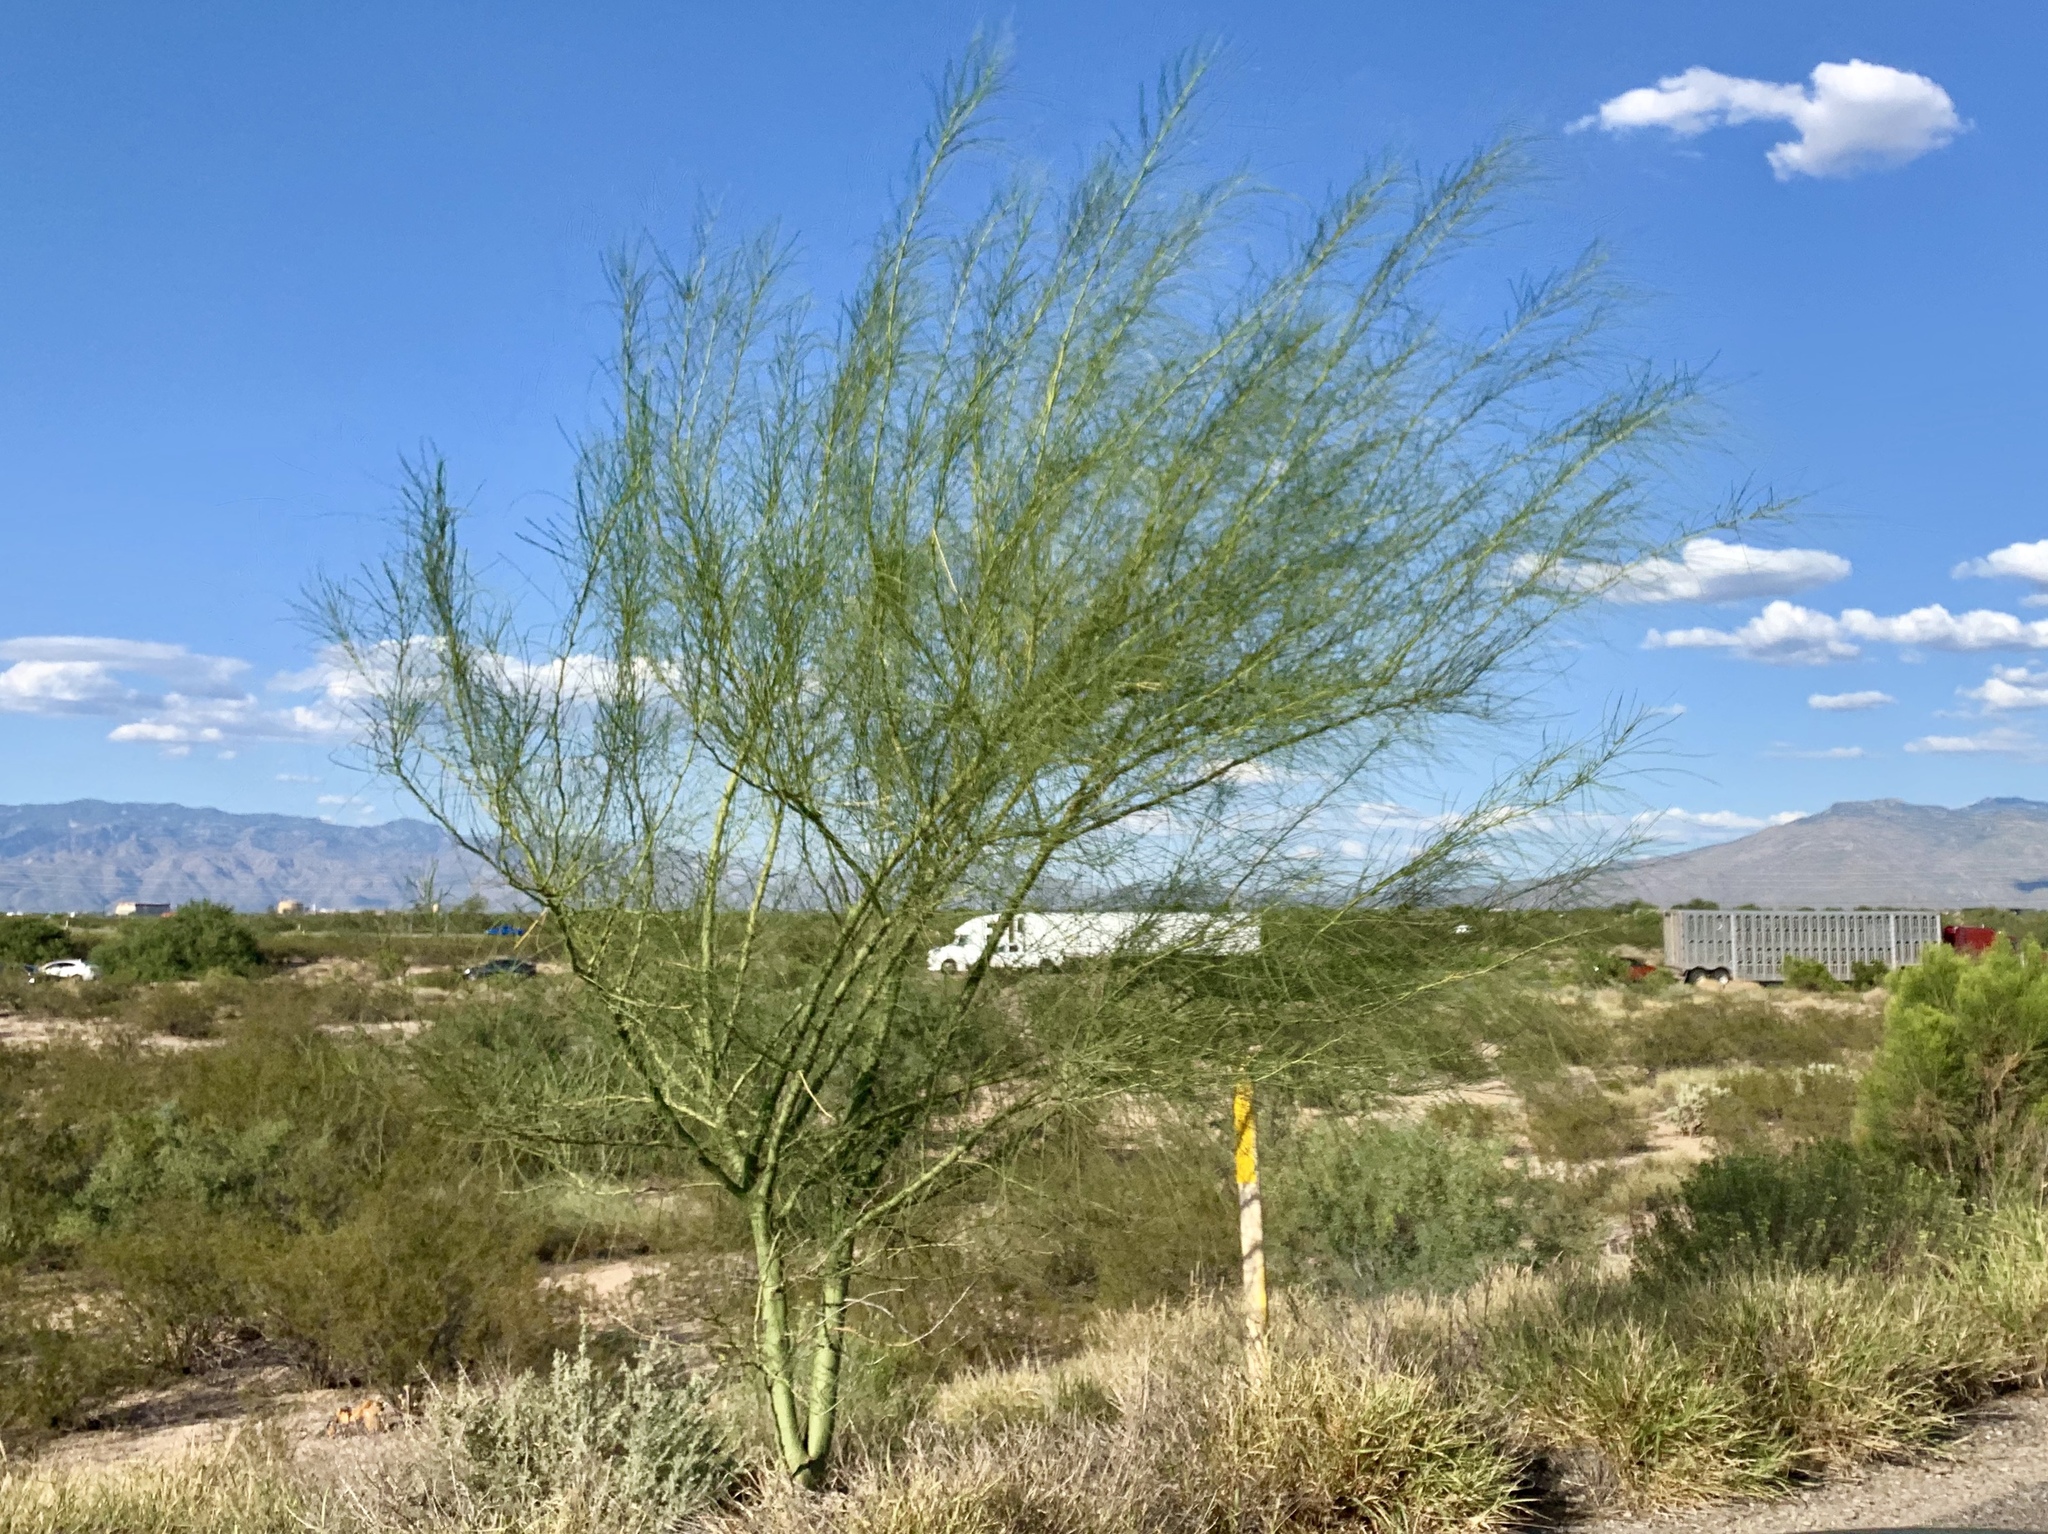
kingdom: Plantae
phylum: Tracheophyta
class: Magnoliopsida
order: Fabales
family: Fabaceae
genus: Parkinsonia
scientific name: Parkinsonia aculeata
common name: Jerusalem thorn
